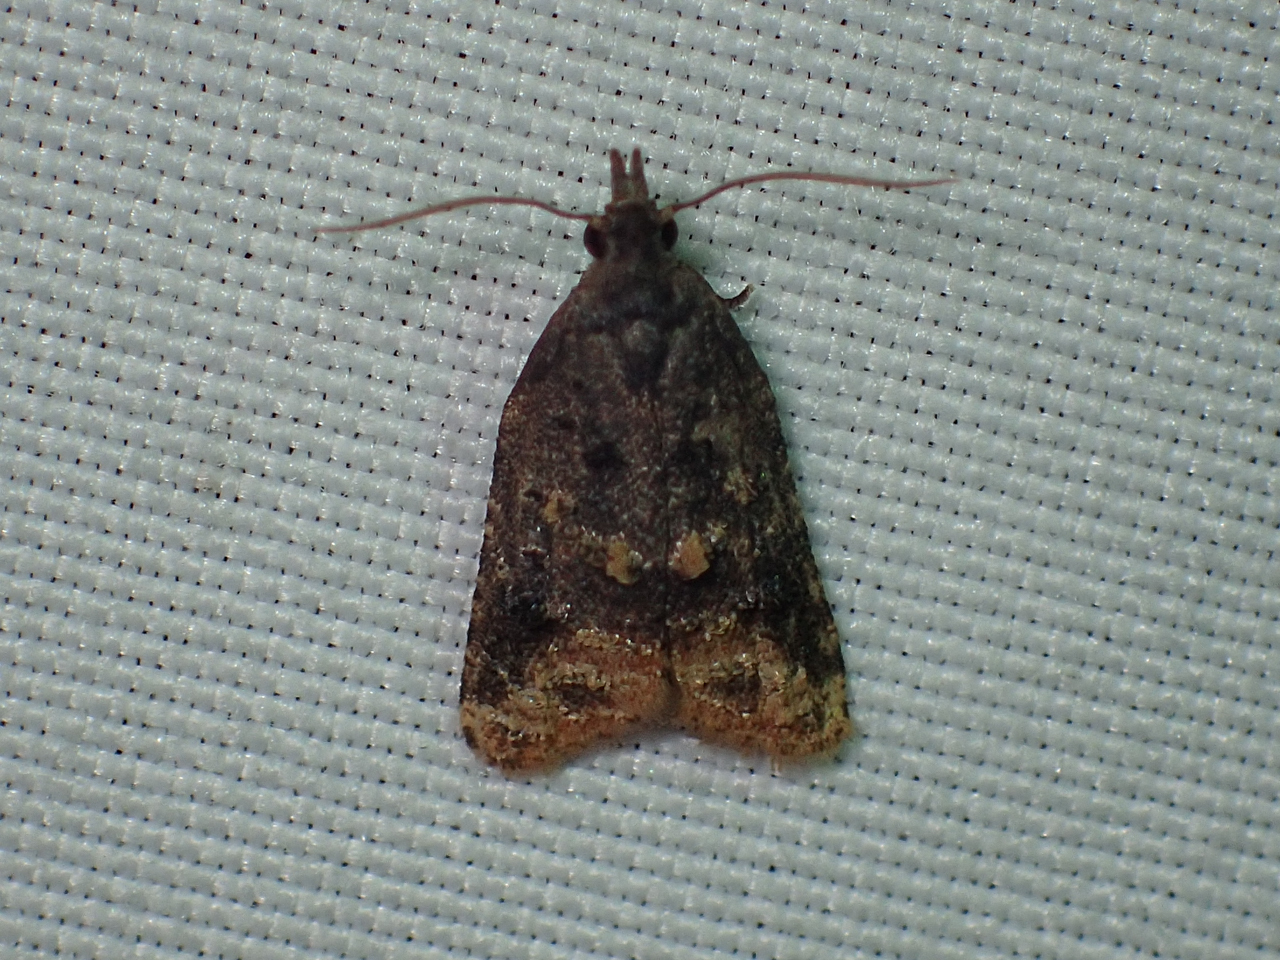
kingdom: Animalia
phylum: Arthropoda
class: Insecta
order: Lepidoptera
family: Tortricidae
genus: Platynota
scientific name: Platynota idaeusalis
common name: Tufted apple bud moth
